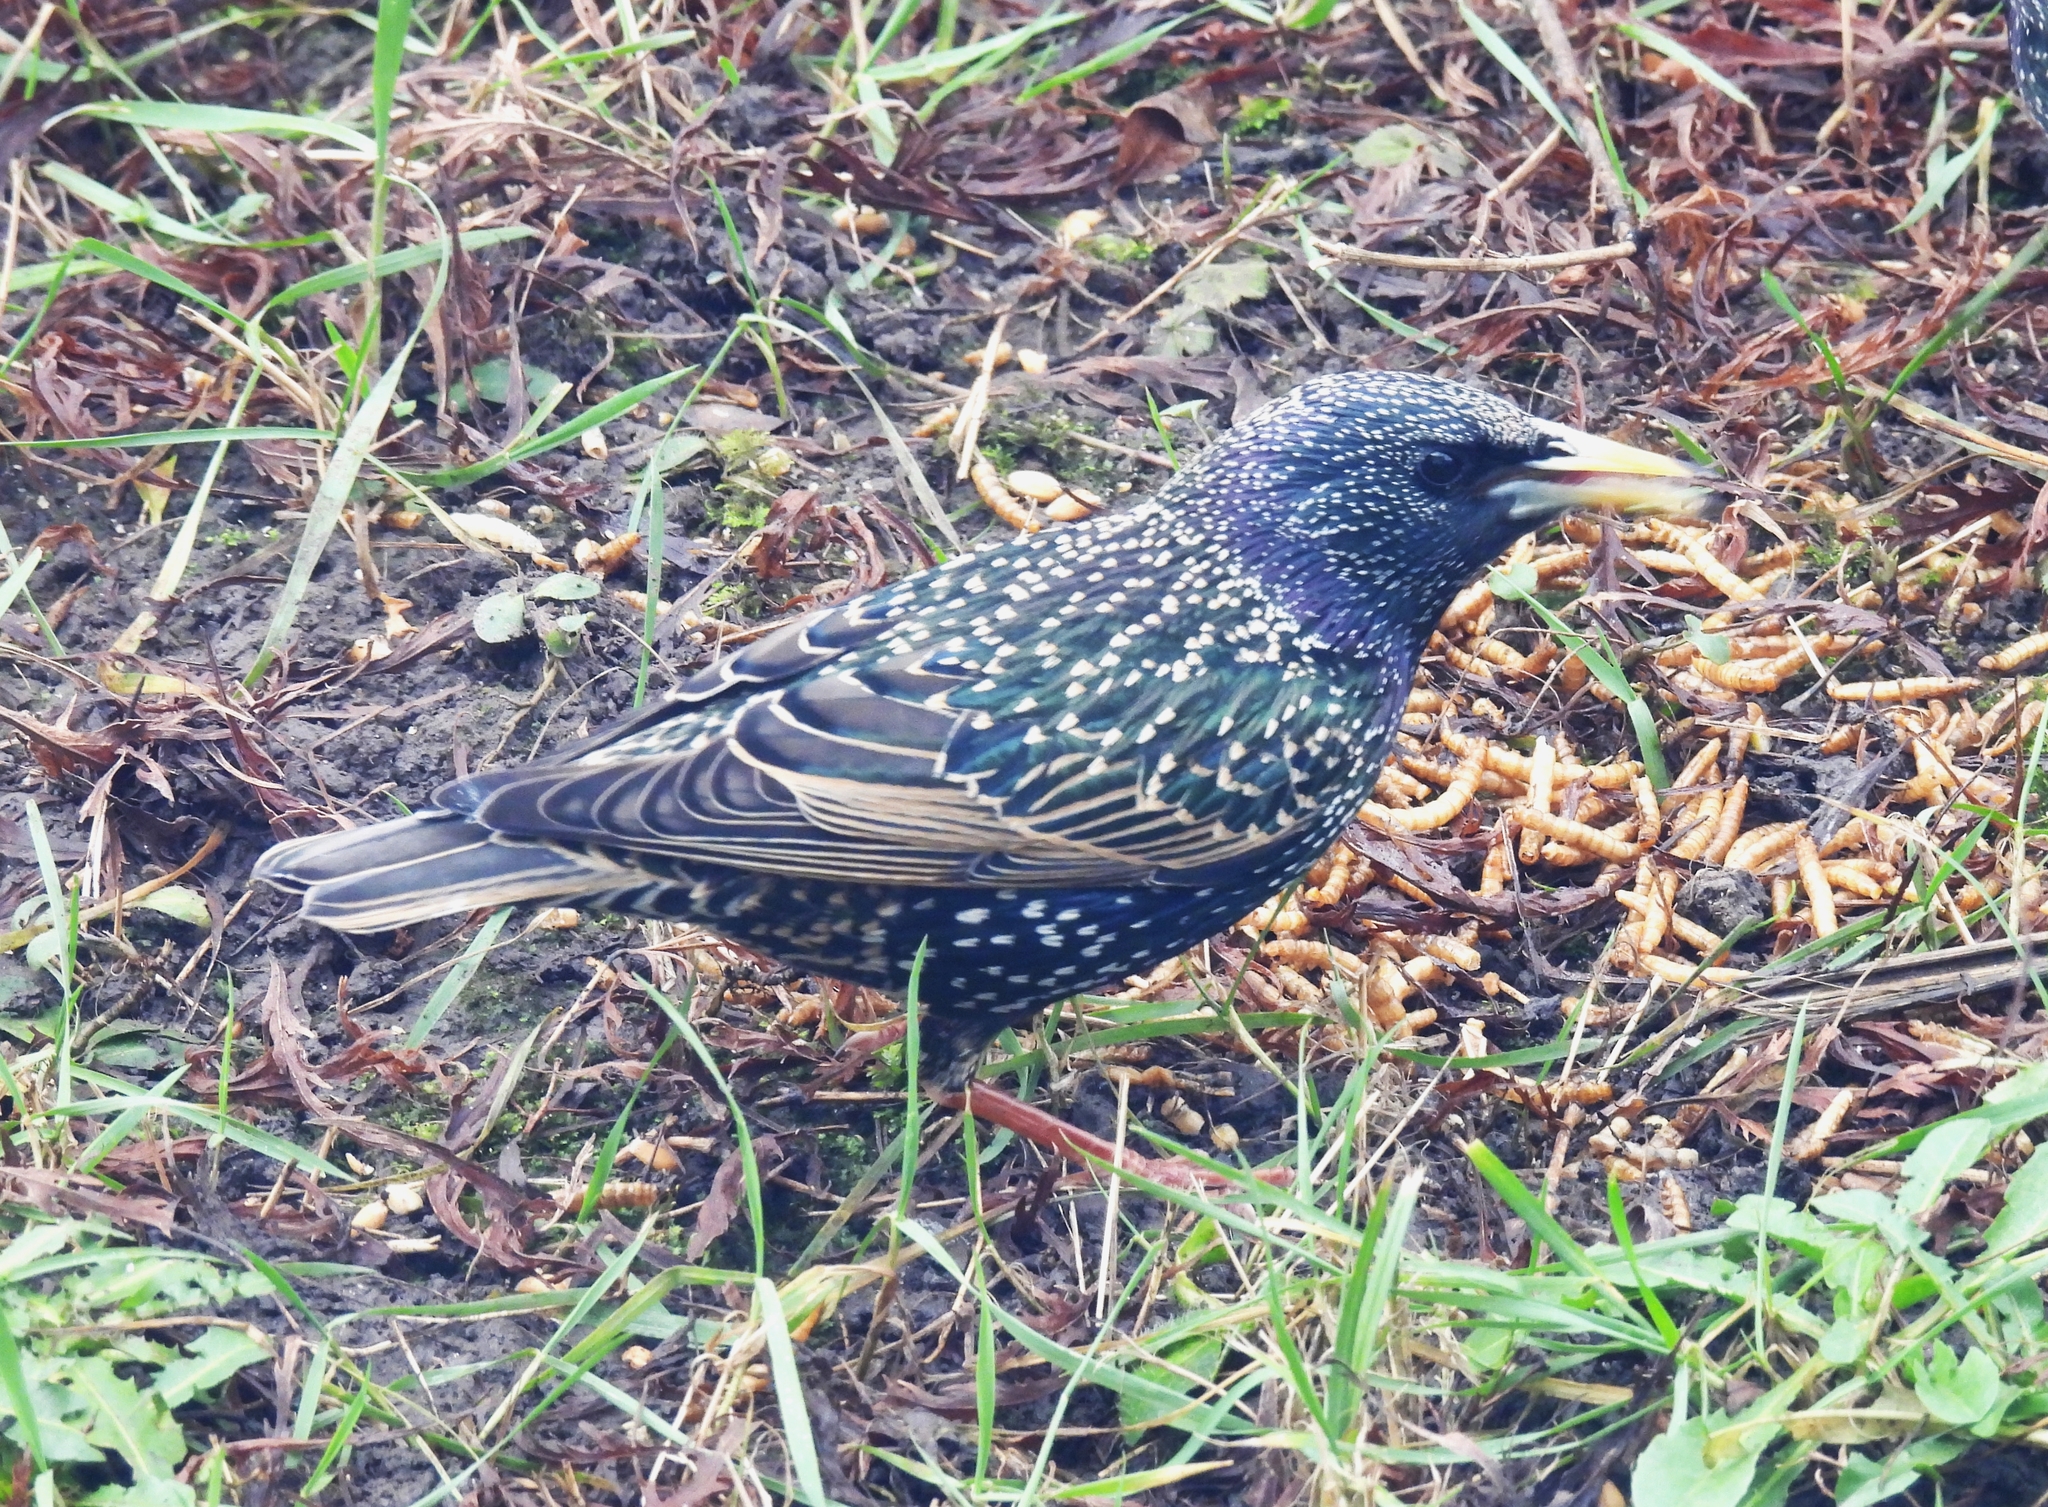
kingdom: Animalia
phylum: Chordata
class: Aves
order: Passeriformes
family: Sturnidae
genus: Sturnus
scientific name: Sturnus vulgaris
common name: Common starling
